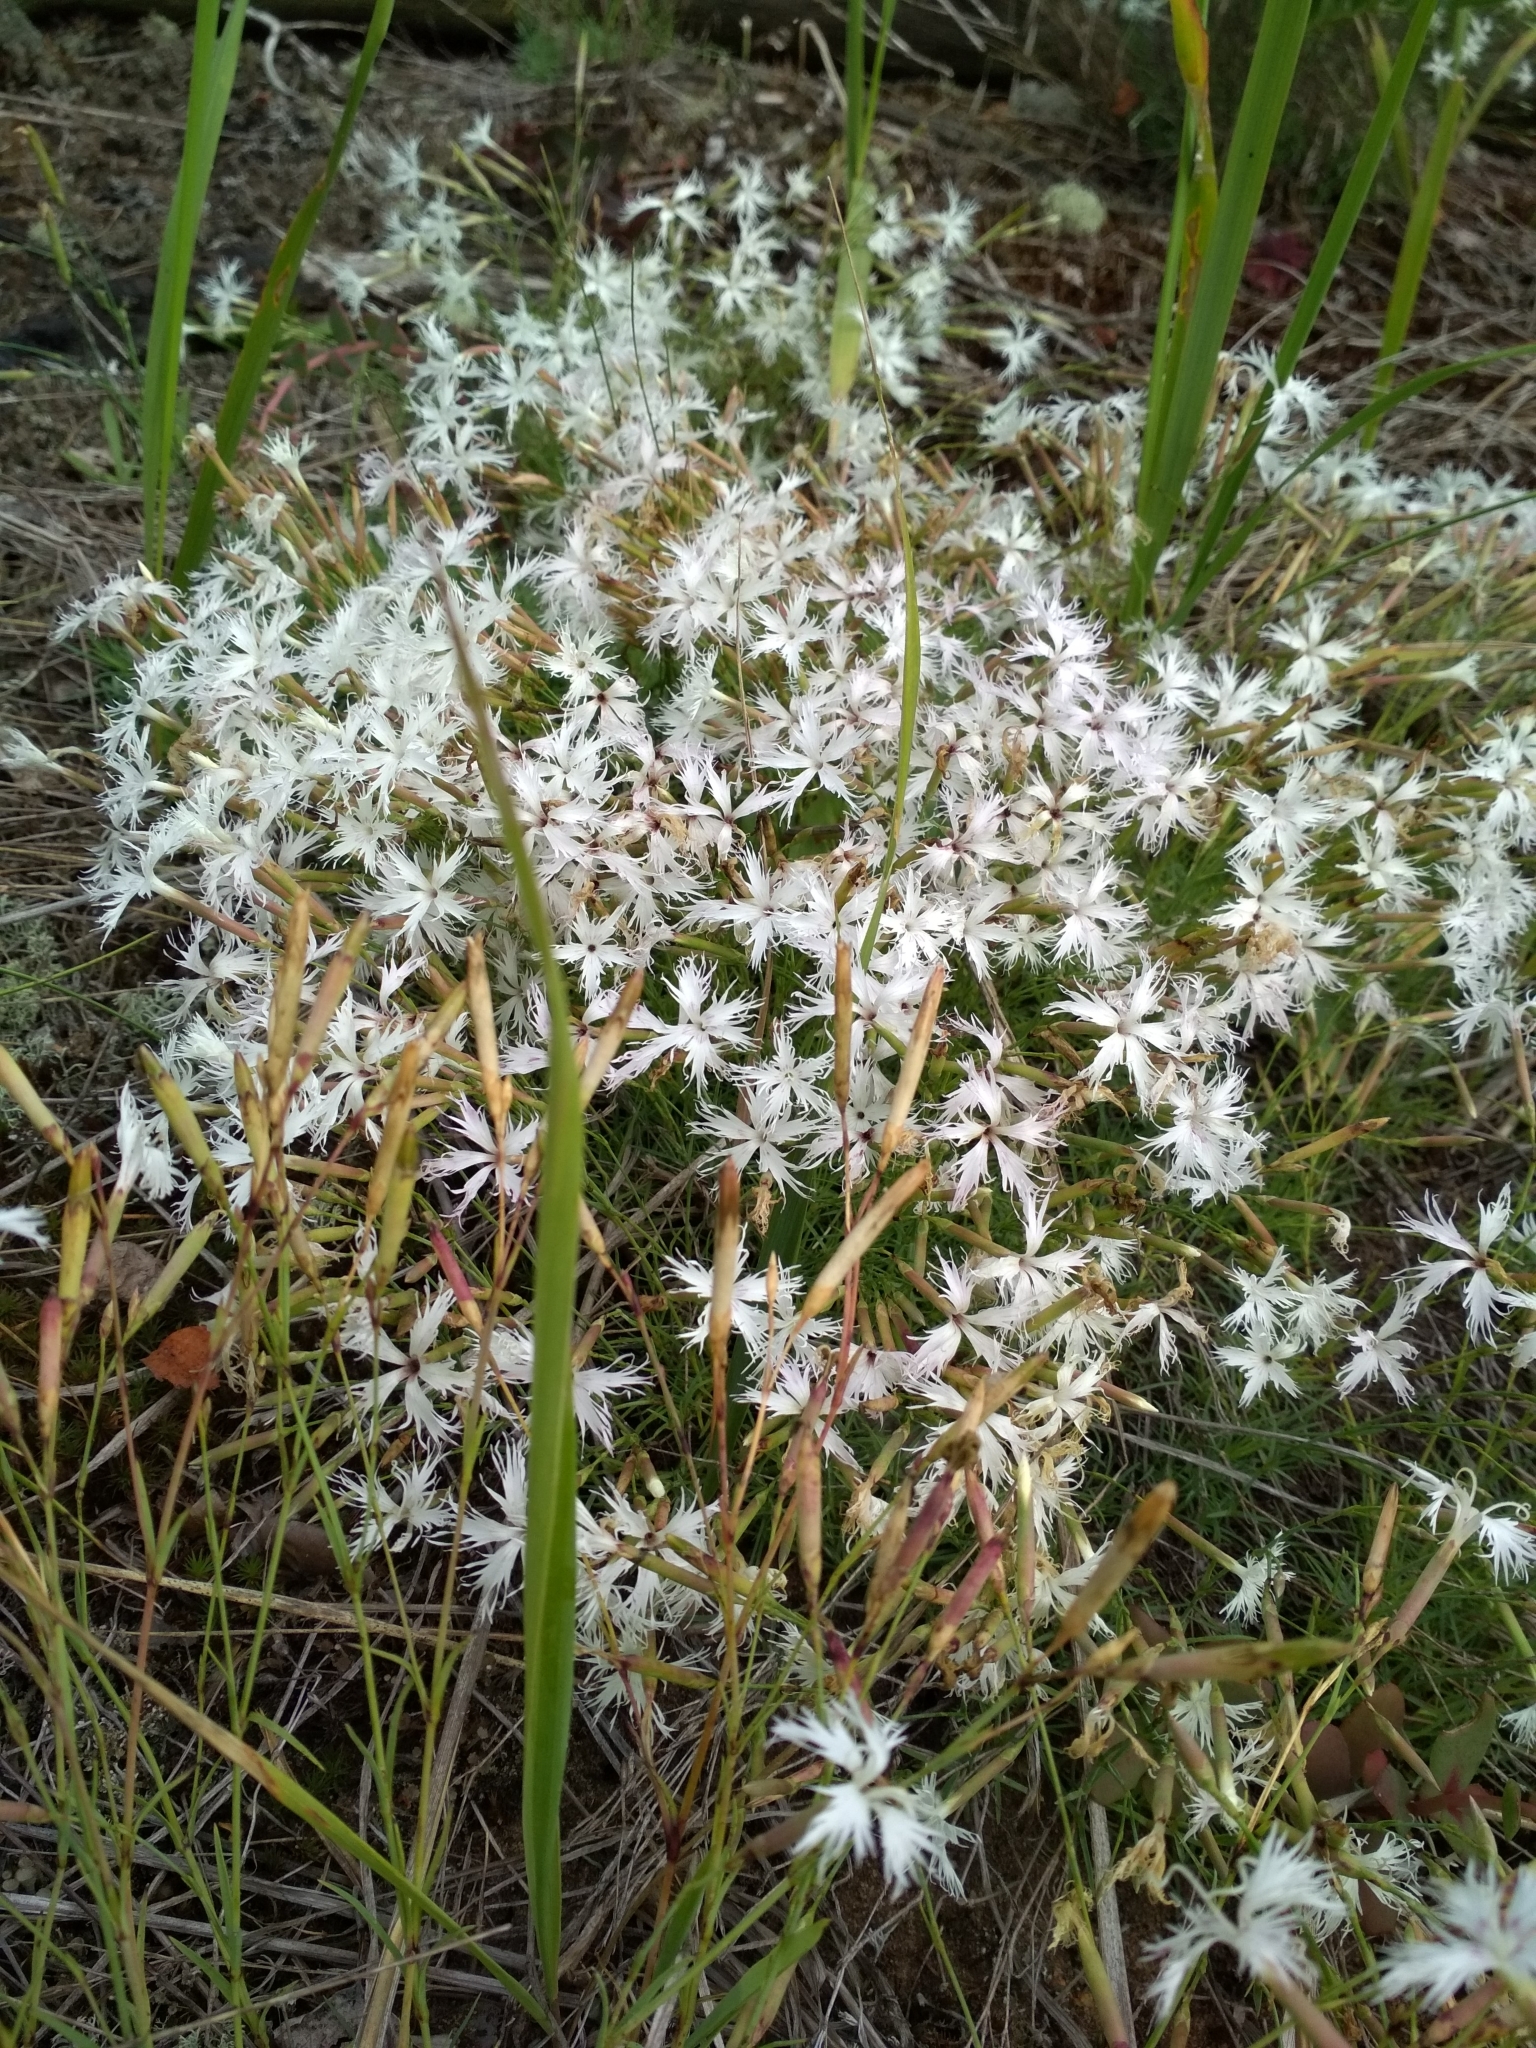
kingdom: Plantae
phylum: Tracheophyta
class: Magnoliopsida
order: Caryophyllales
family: Caryophyllaceae
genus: Dianthus
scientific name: Dianthus arenarius
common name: Stone pink
